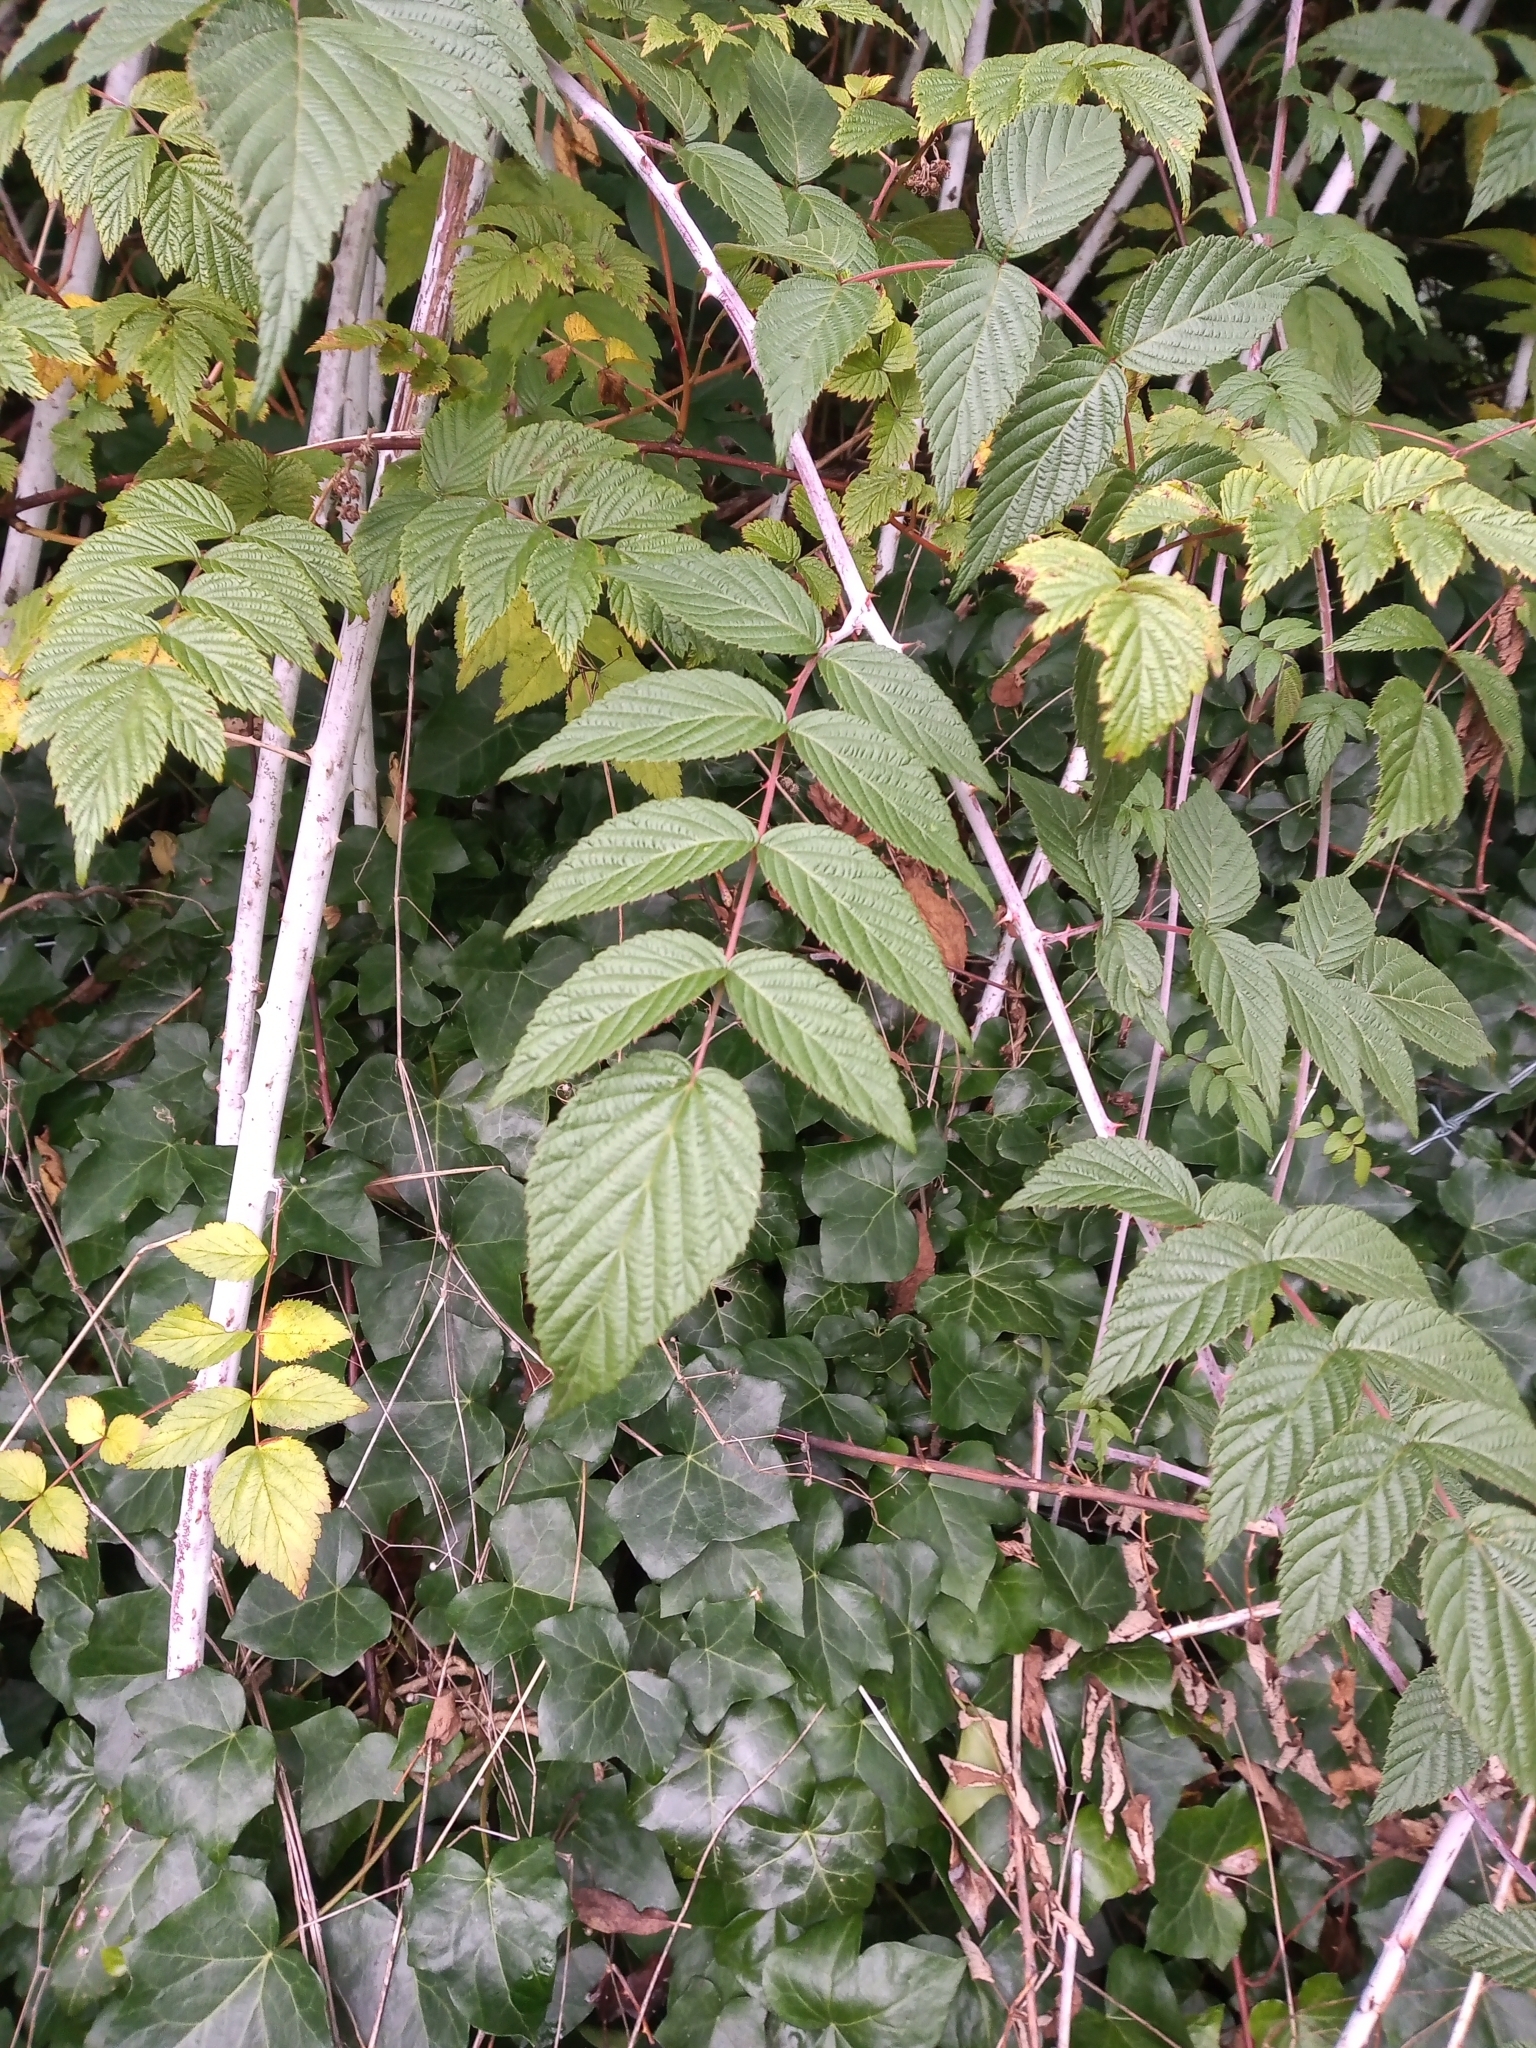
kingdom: Plantae
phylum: Tracheophyta
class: Magnoliopsida
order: Rosales
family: Rosaceae
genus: Rubus
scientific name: Rubus cockburnianus
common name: White-stemmed bramble
